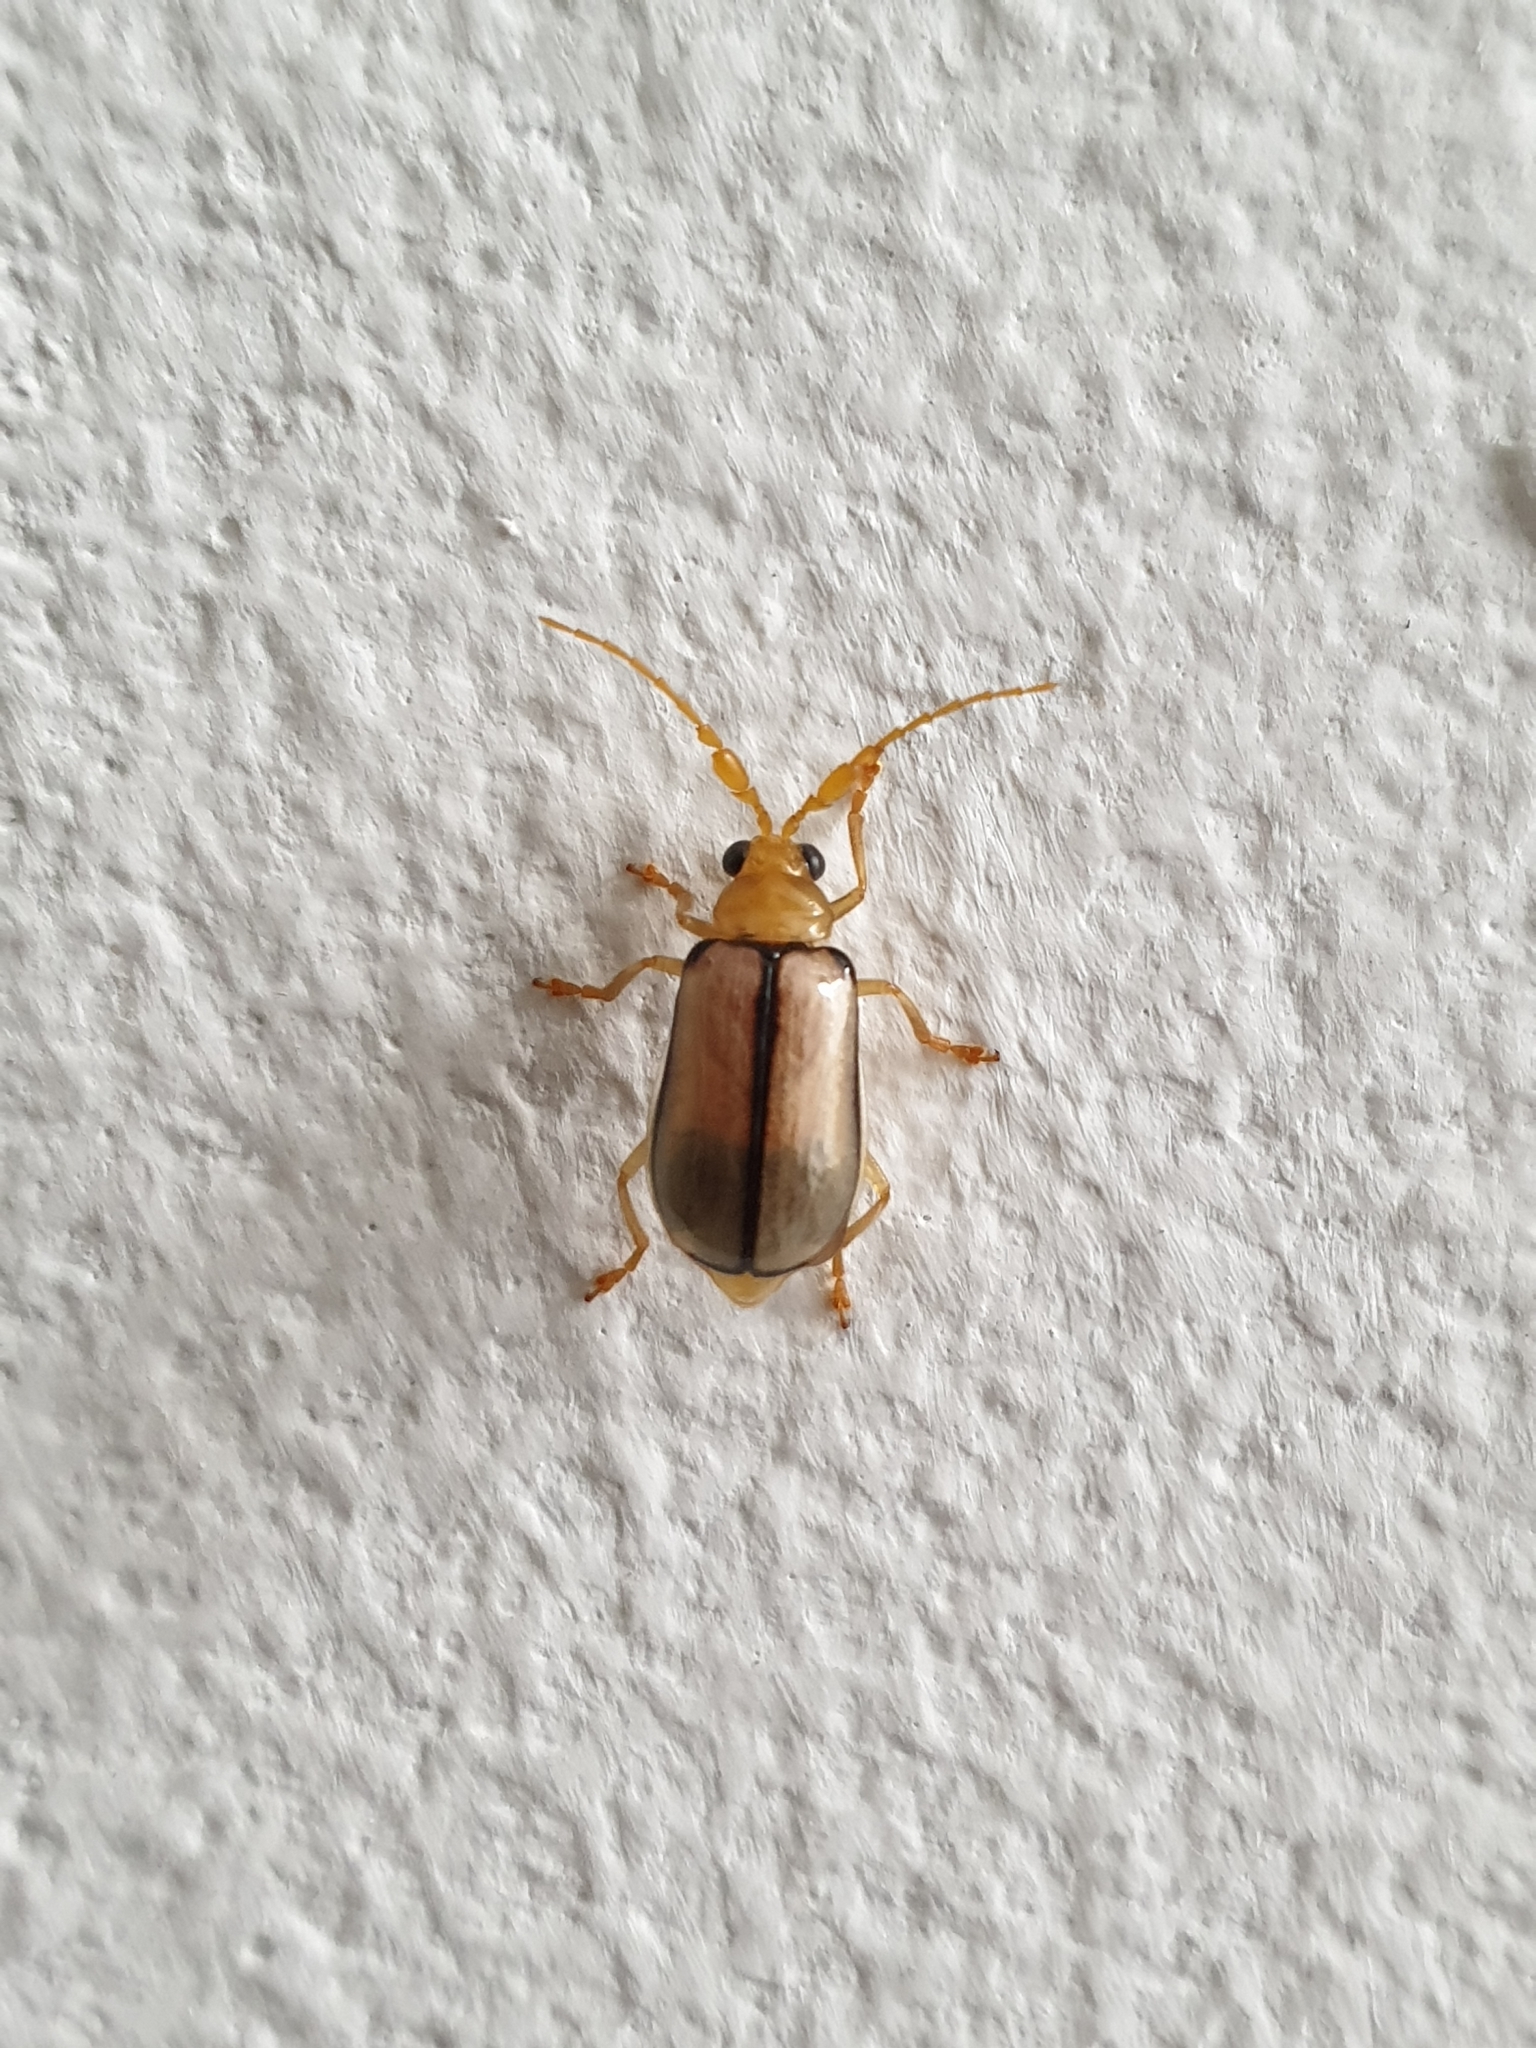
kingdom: Animalia
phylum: Arthropoda
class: Insecta
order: Coleoptera
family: Chrysomelidae
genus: Aulacophora
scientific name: Aulacophora
